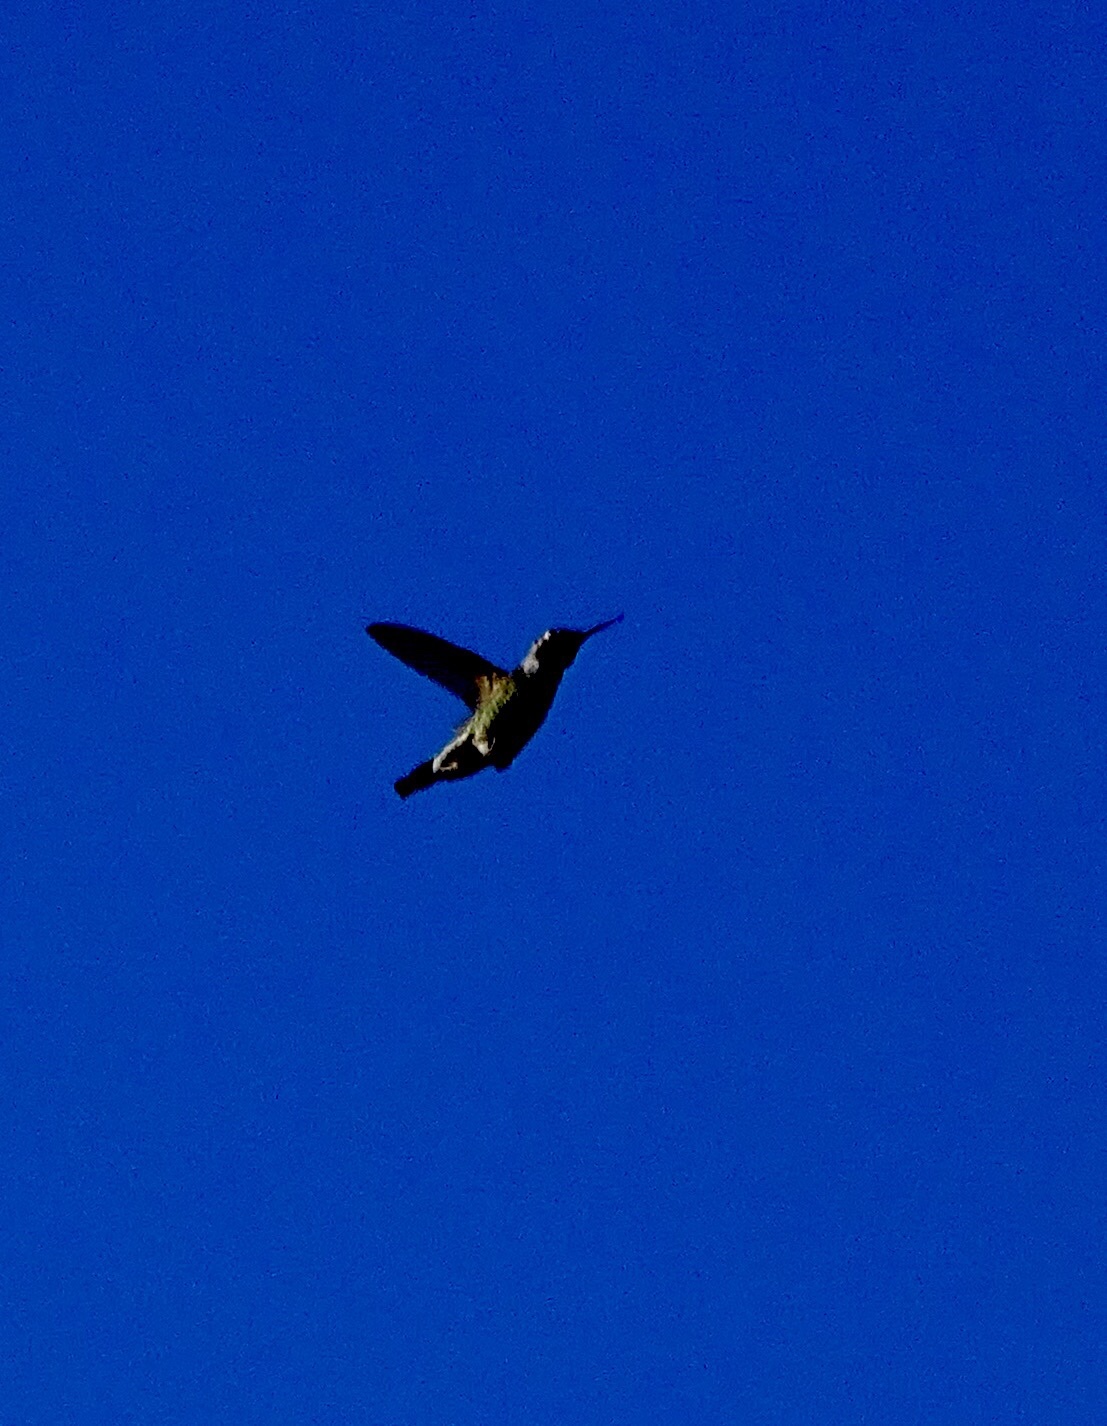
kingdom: Animalia
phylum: Chordata
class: Aves
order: Apodiformes
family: Trochilidae
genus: Calypte
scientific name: Calypte anna
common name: Anna's hummingbird
